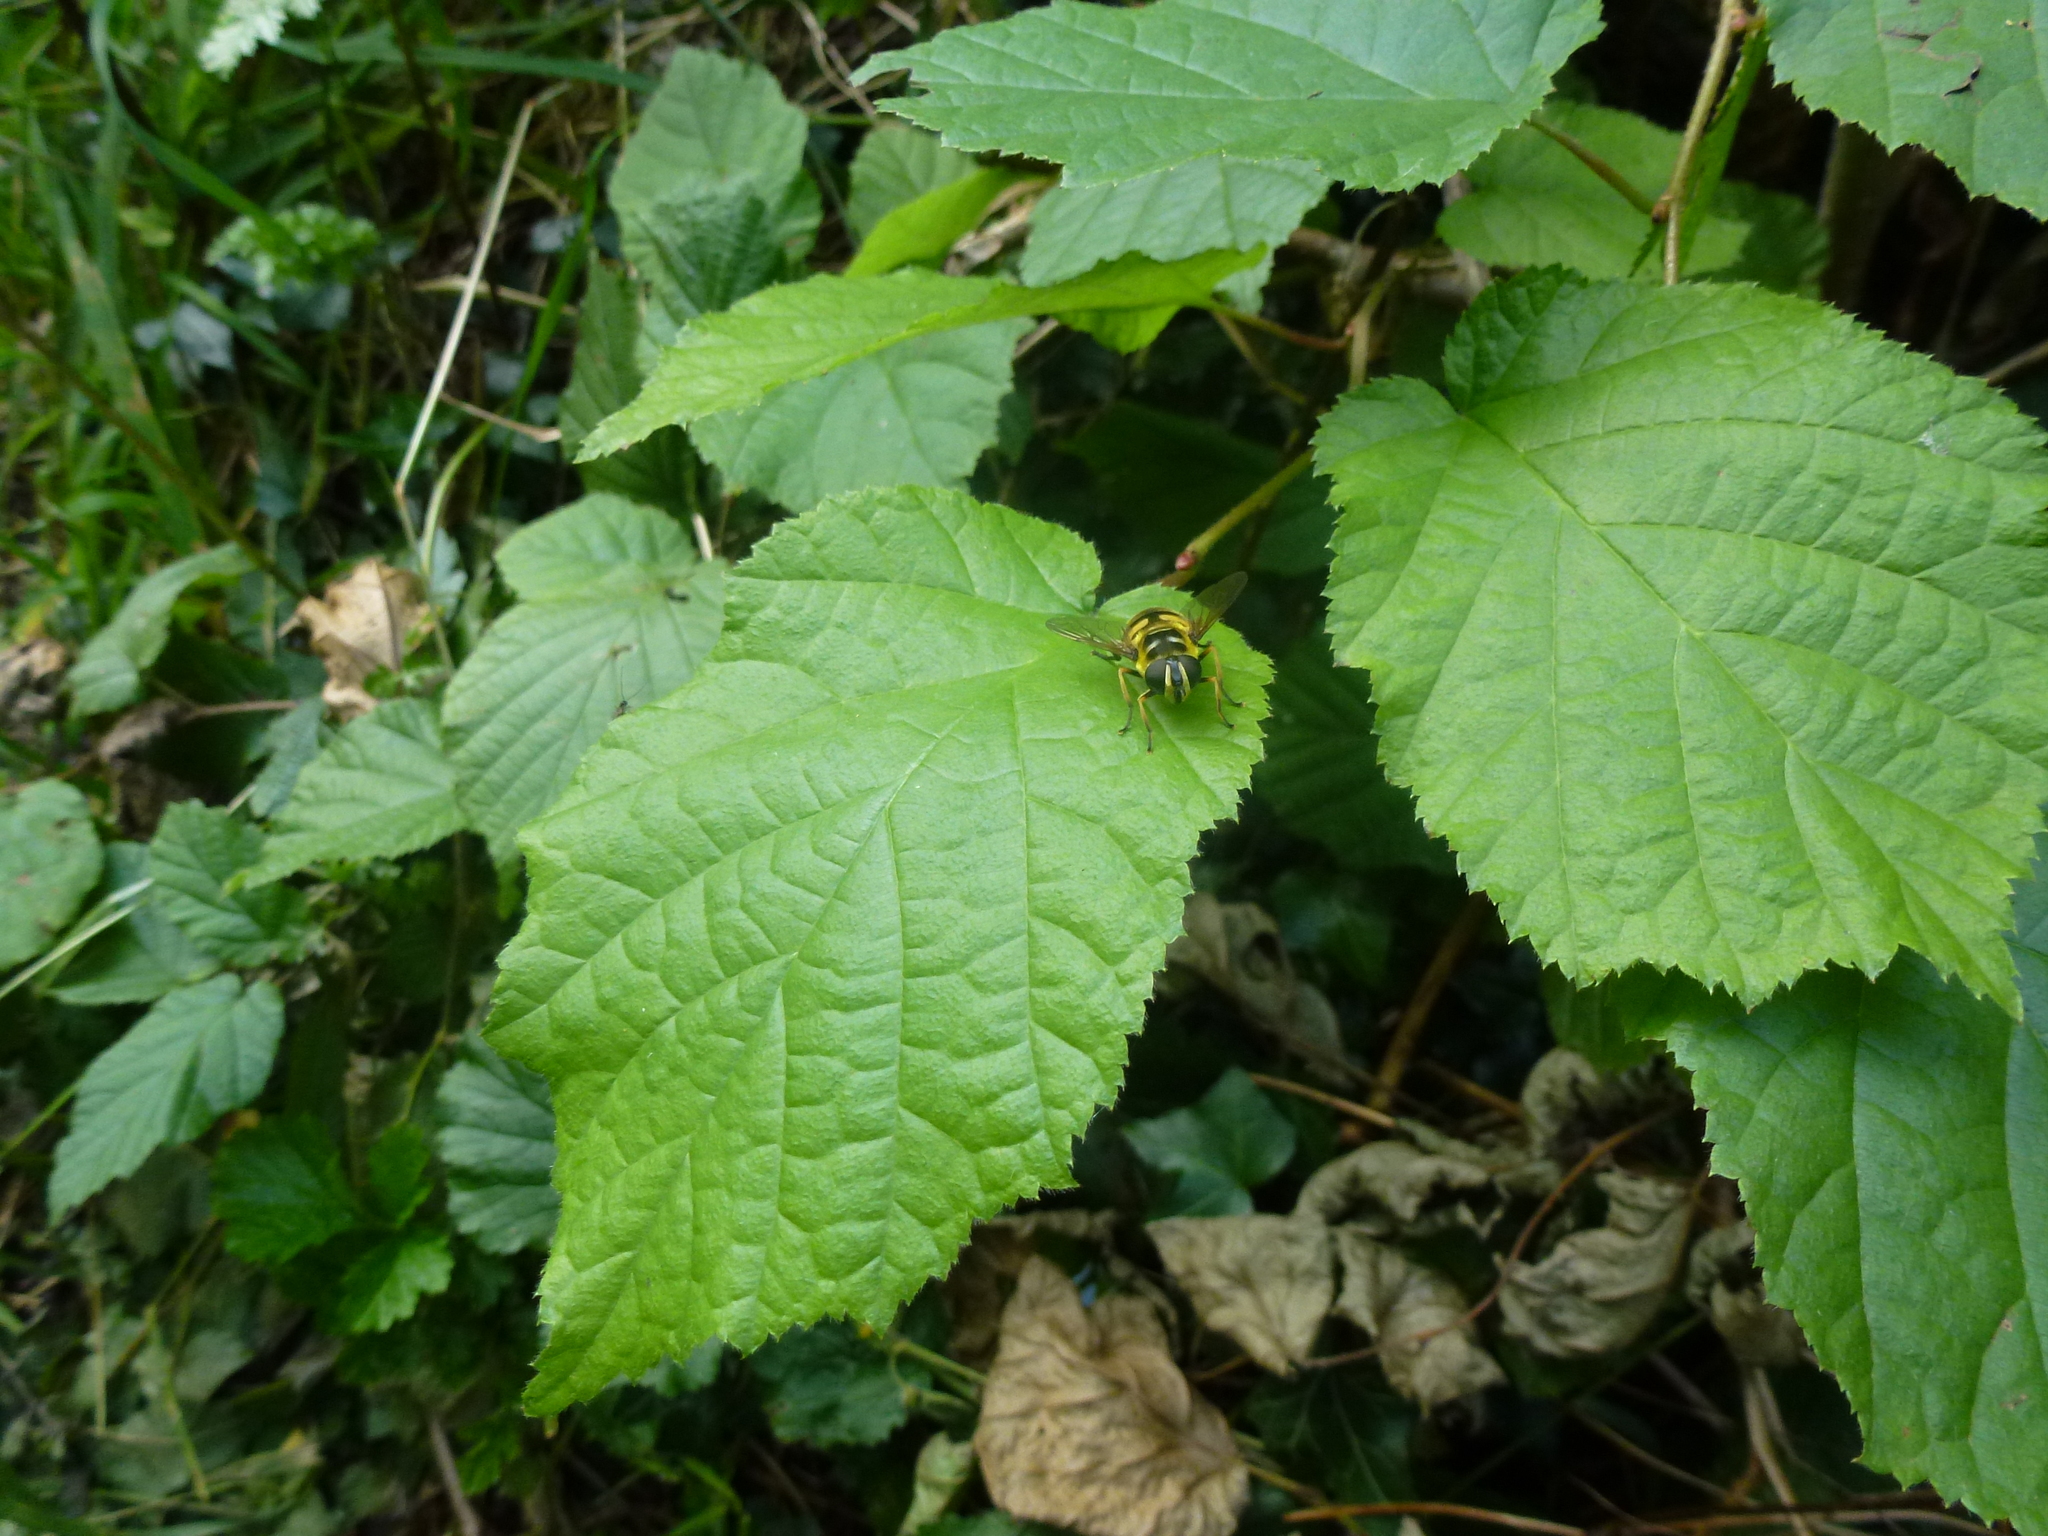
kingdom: Animalia
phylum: Arthropoda
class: Insecta
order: Diptera
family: Syrphidae
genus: Myathropa
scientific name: Myathropa florea
